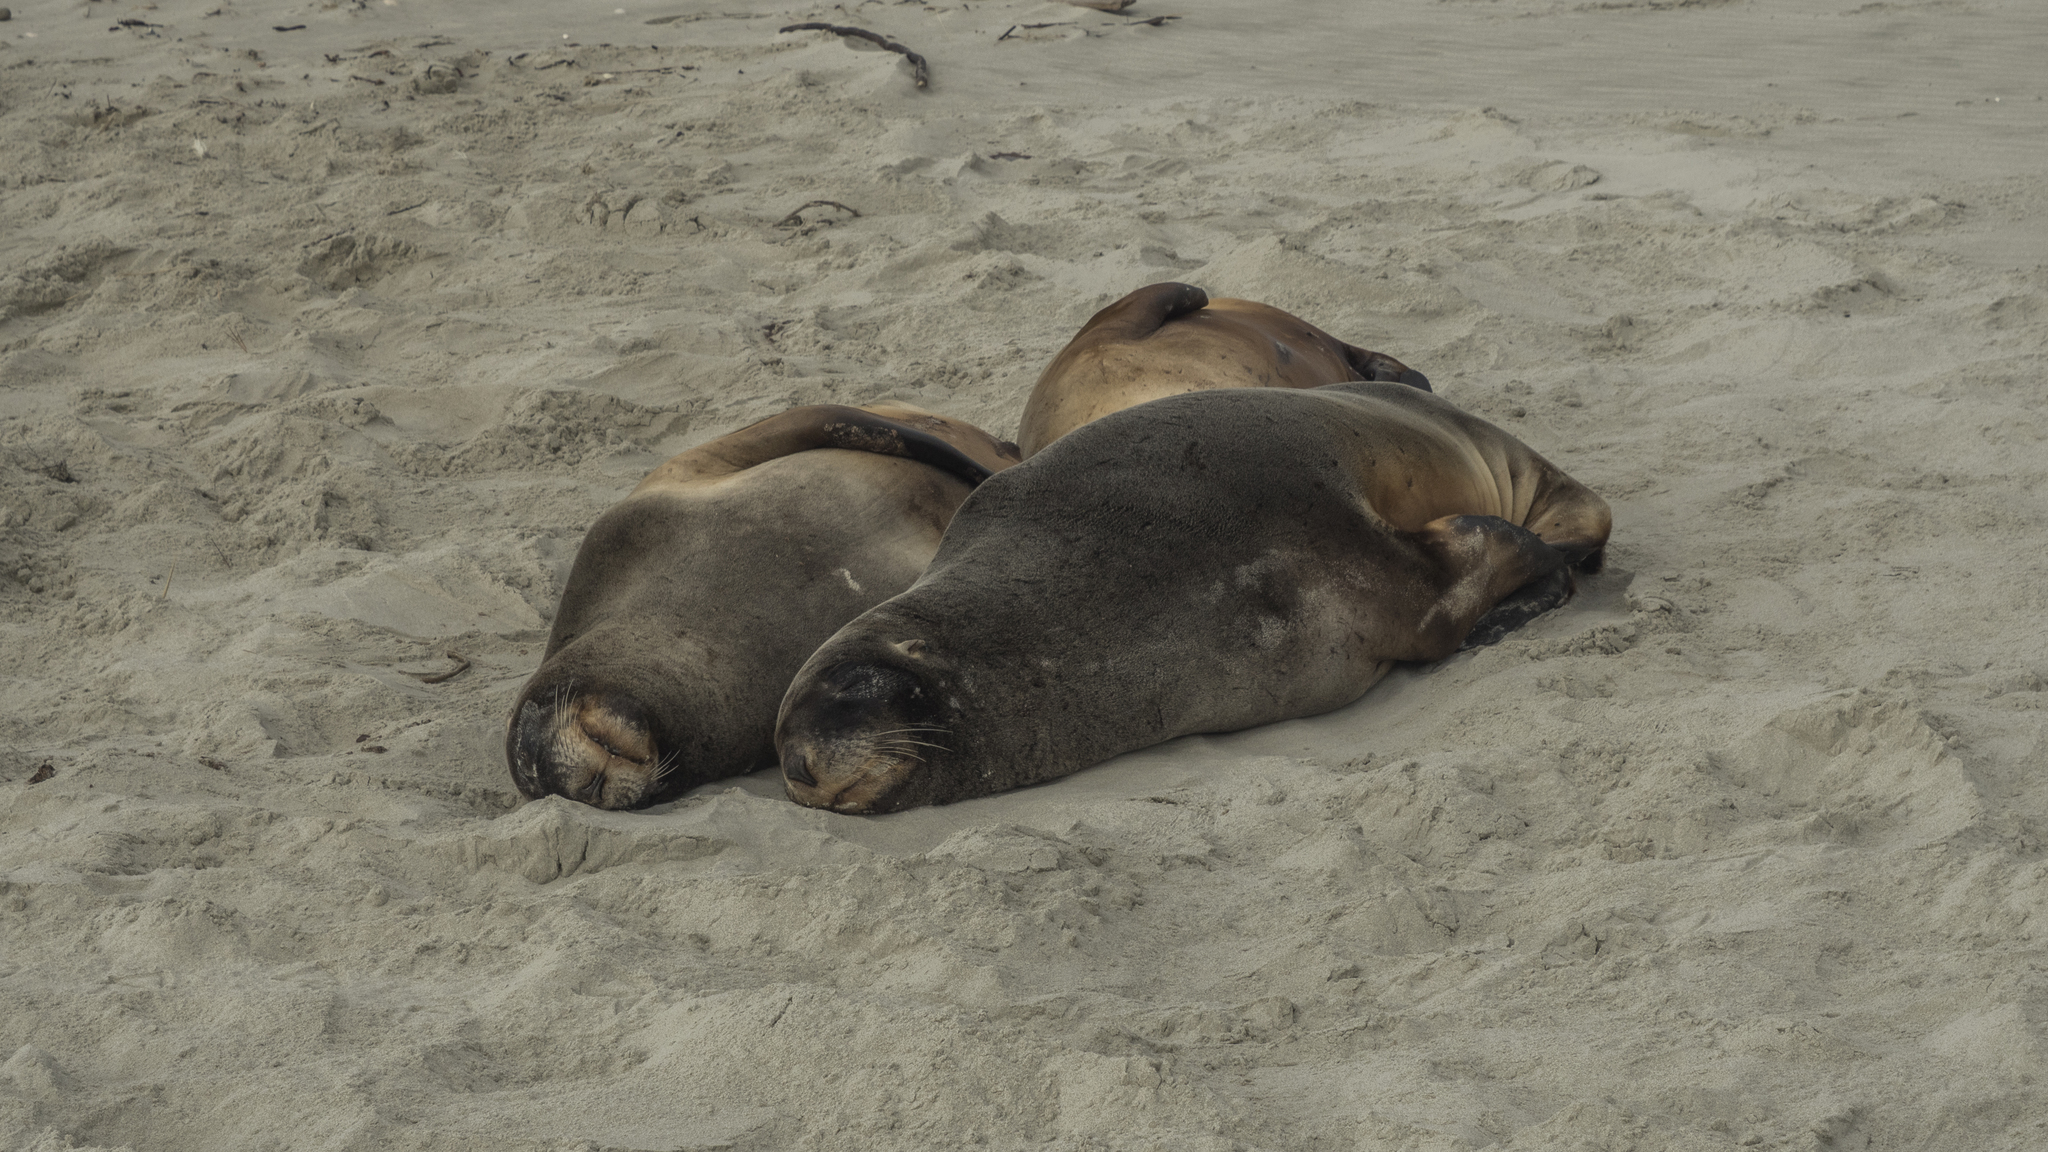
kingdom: Animalia
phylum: Chordata
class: Mammalia
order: Carnivora
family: Otariidae
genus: Phocarctos
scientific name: Phocarctos hookeri
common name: New zealand sea lion
